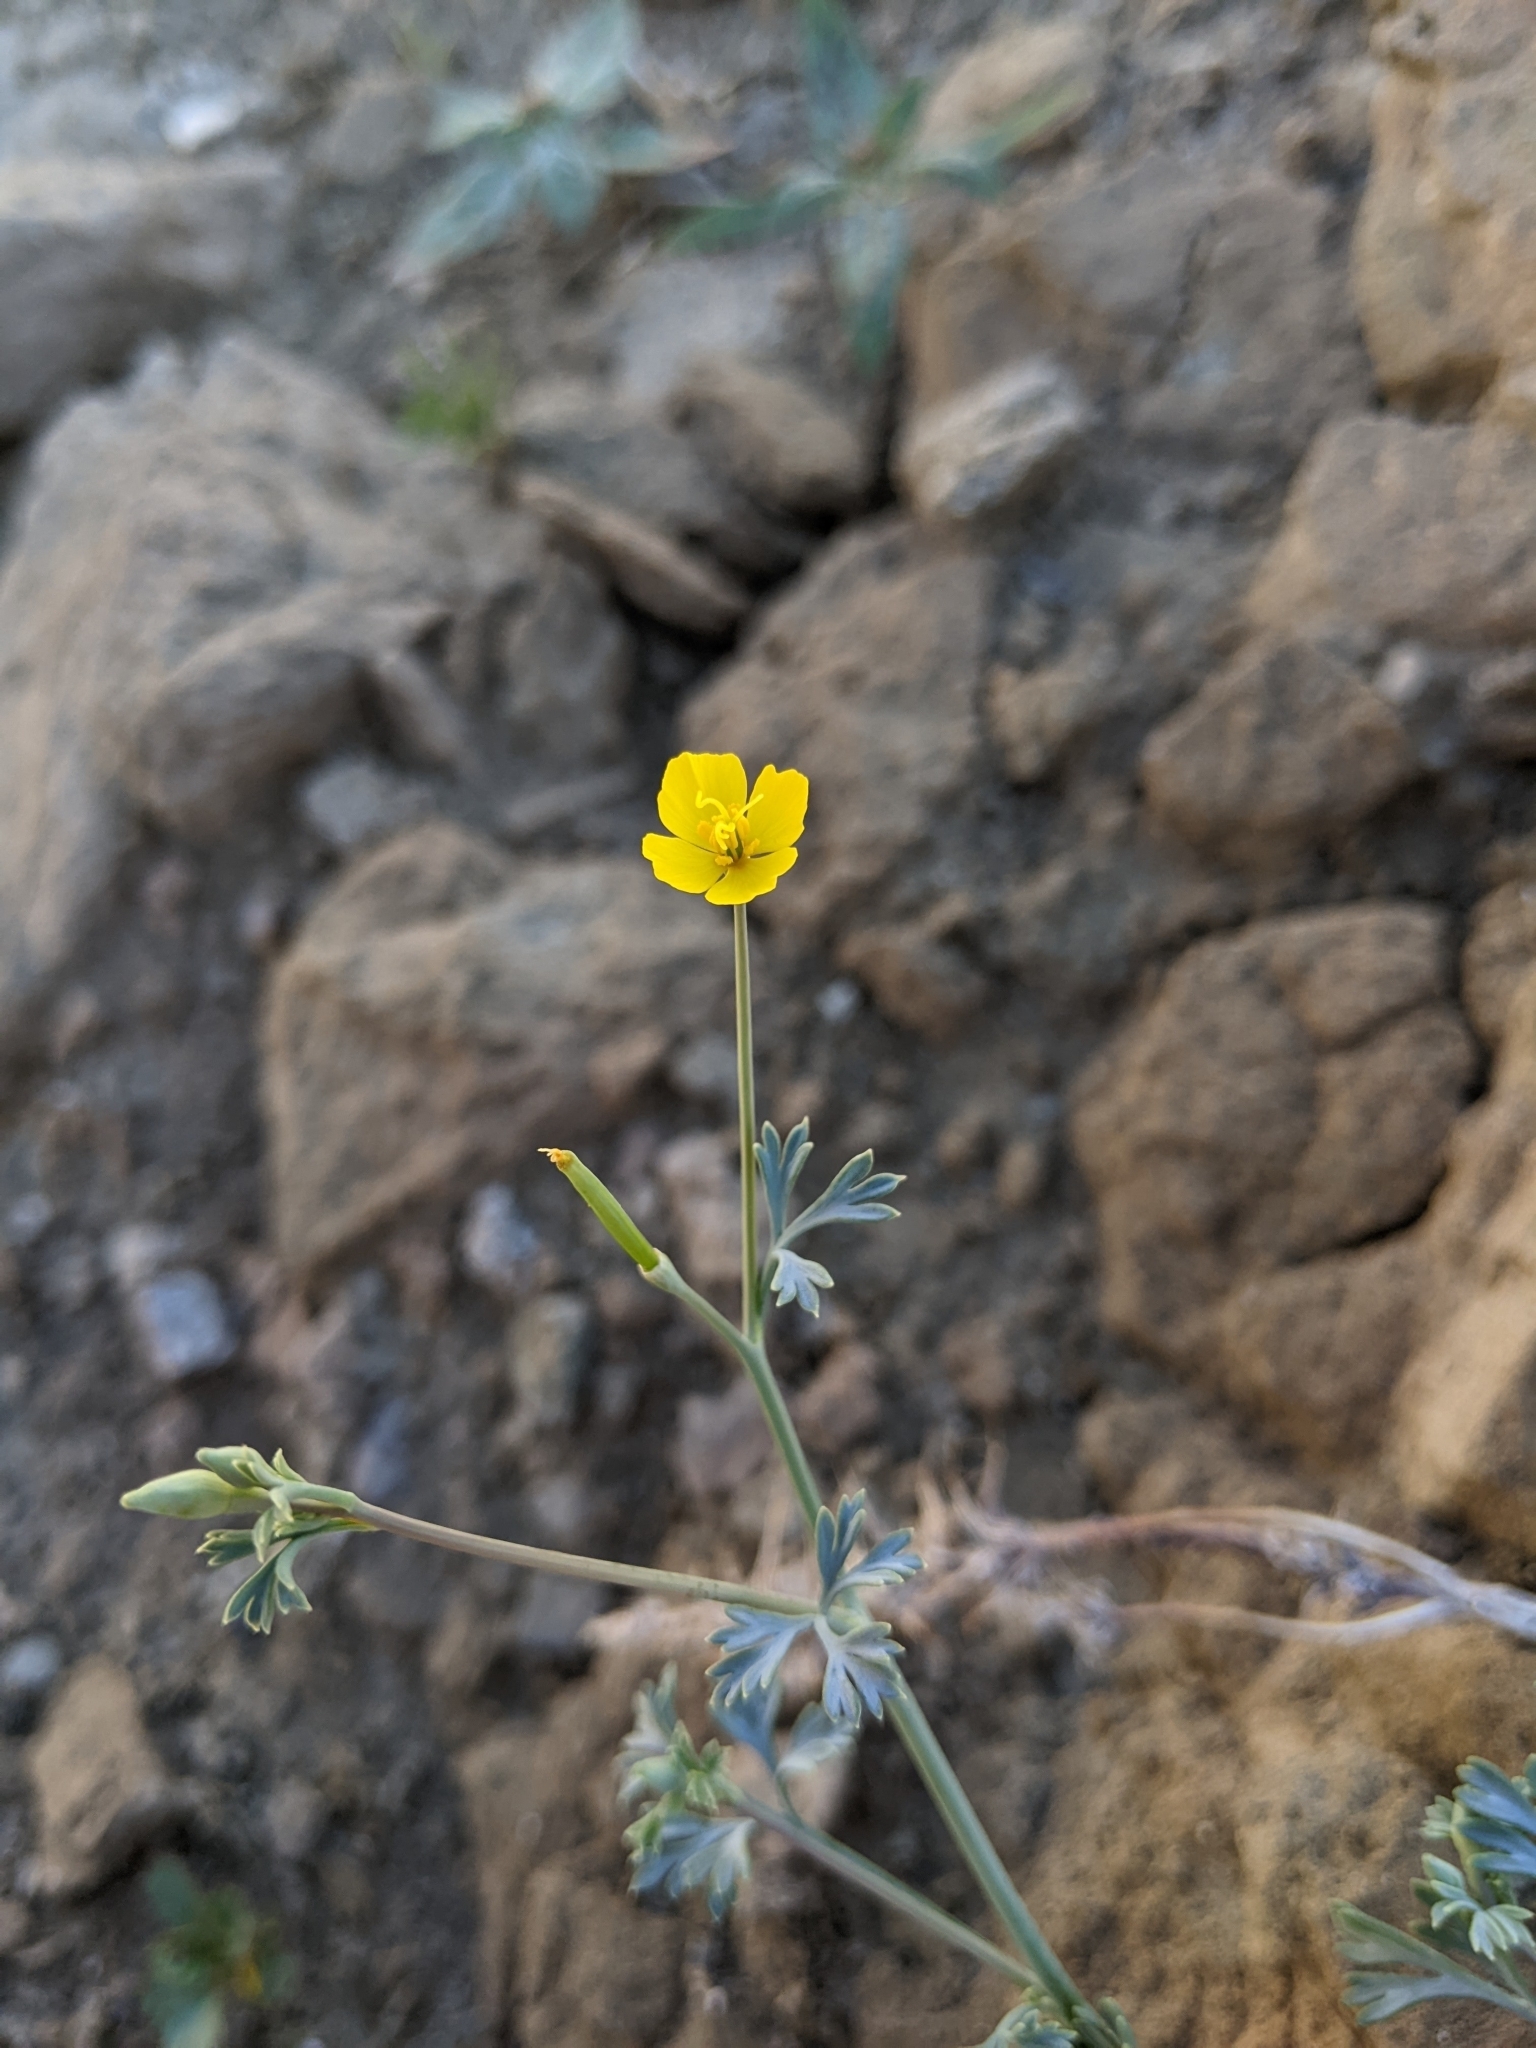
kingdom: Plantae
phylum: Tracheophyta
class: Magnoliopsida
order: Ranunculales
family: Papaveraceae
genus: Eschscholzia
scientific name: Eschscholzia minutiflora
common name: Small-flower california-poppy
